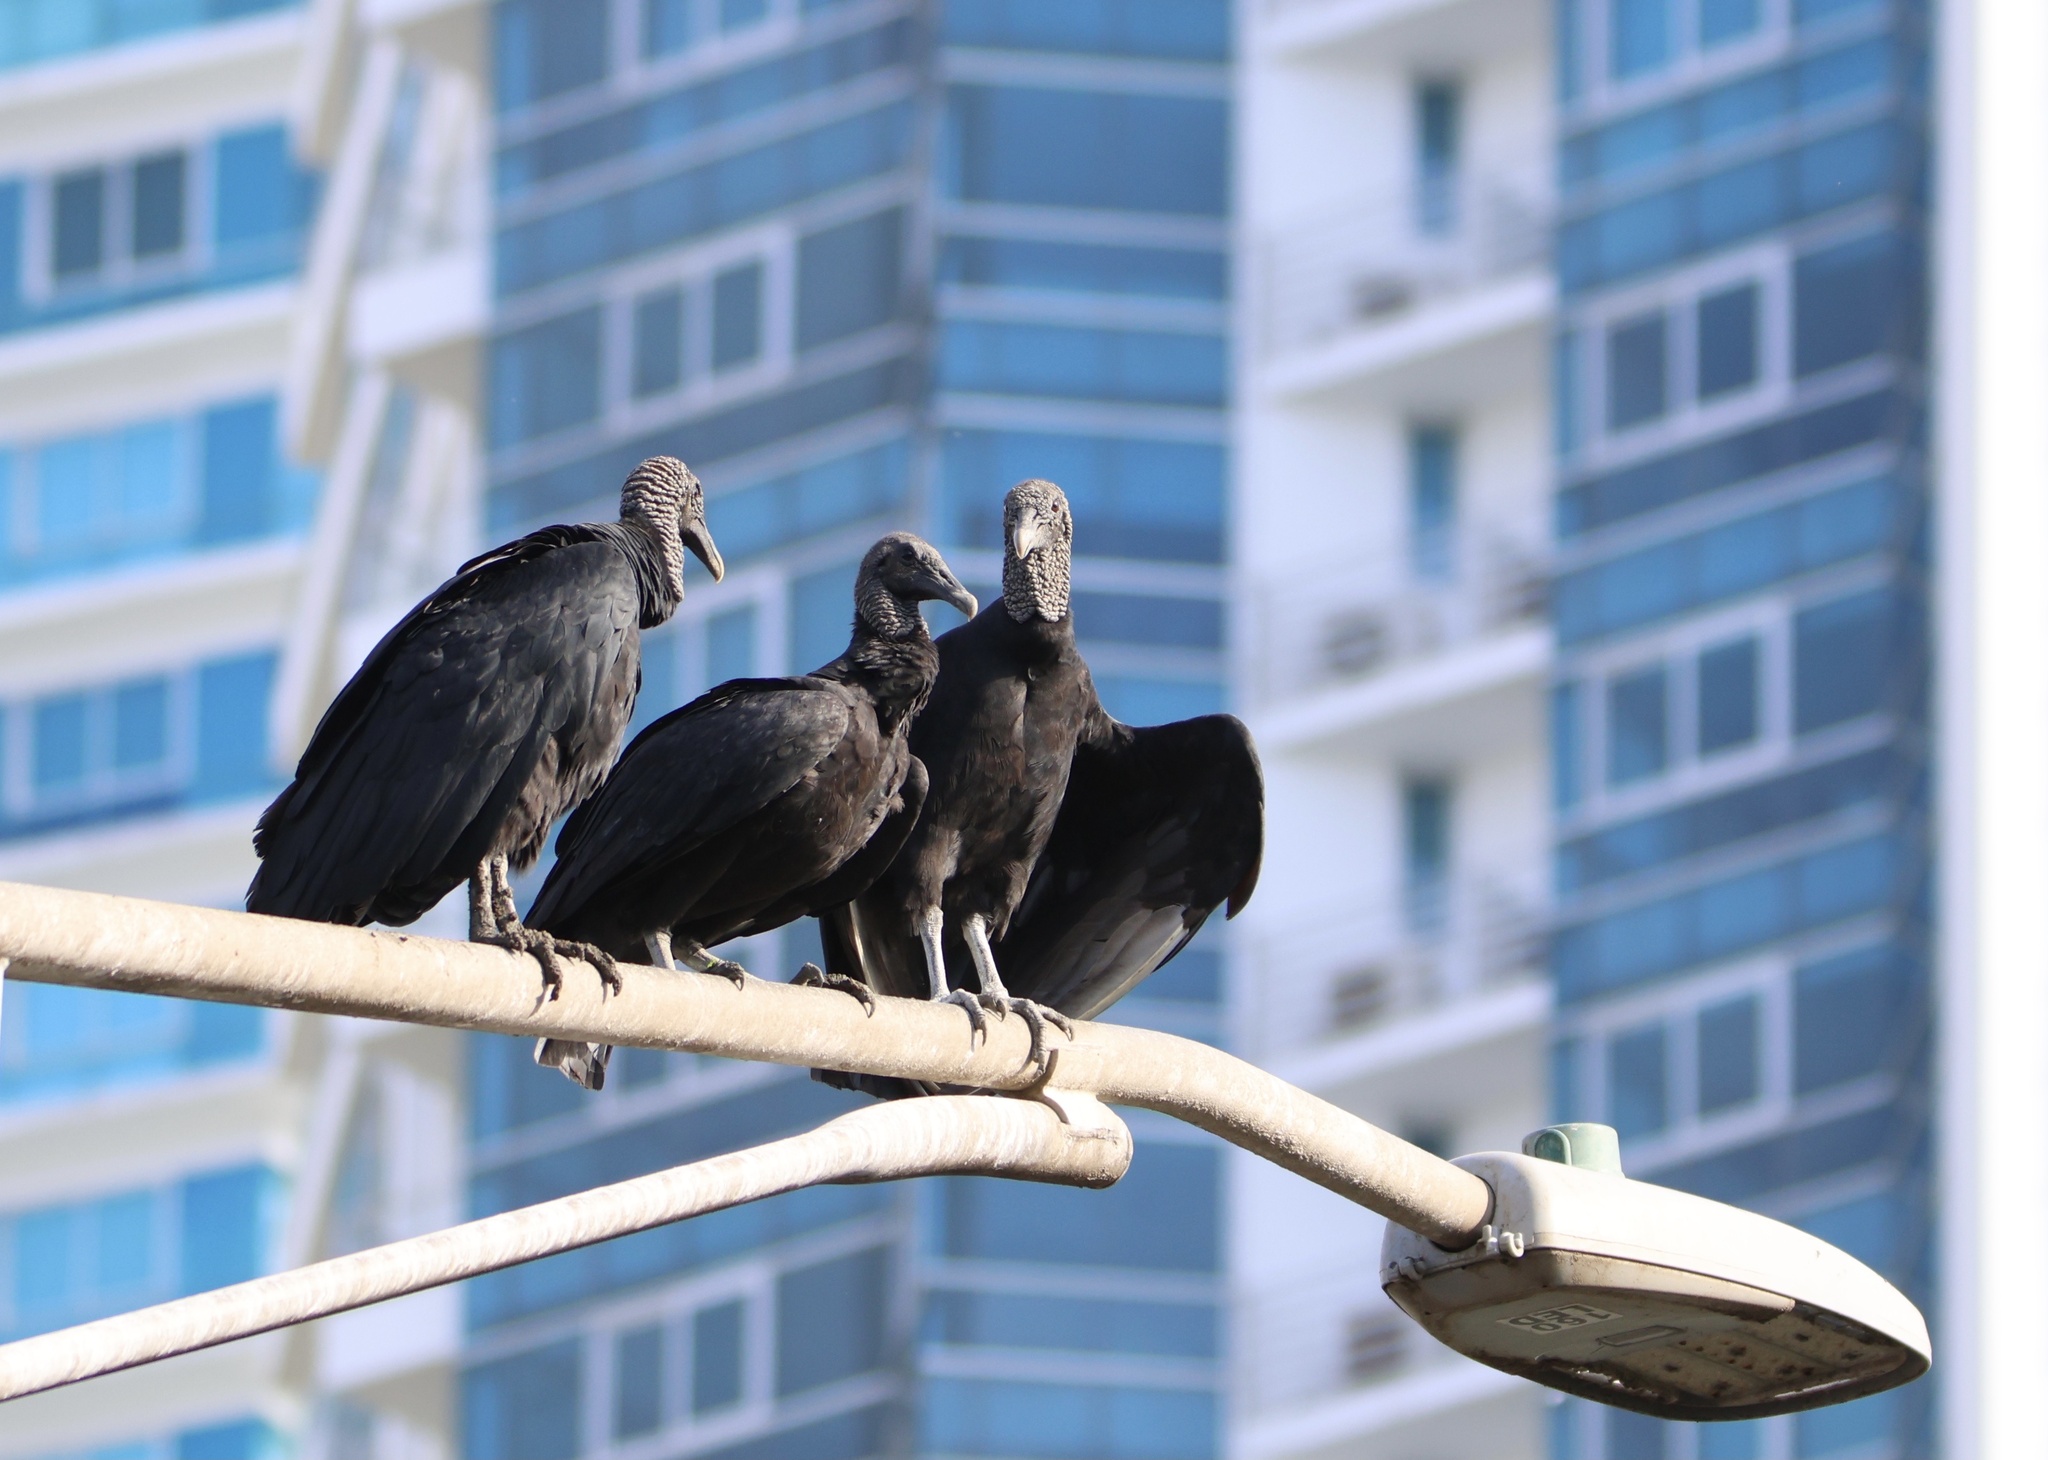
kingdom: Animalia
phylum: Chordata
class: Aves
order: Accipitriformes
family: Cathartidae
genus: Coragyps
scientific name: Coragyps atratus
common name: Black vulture
